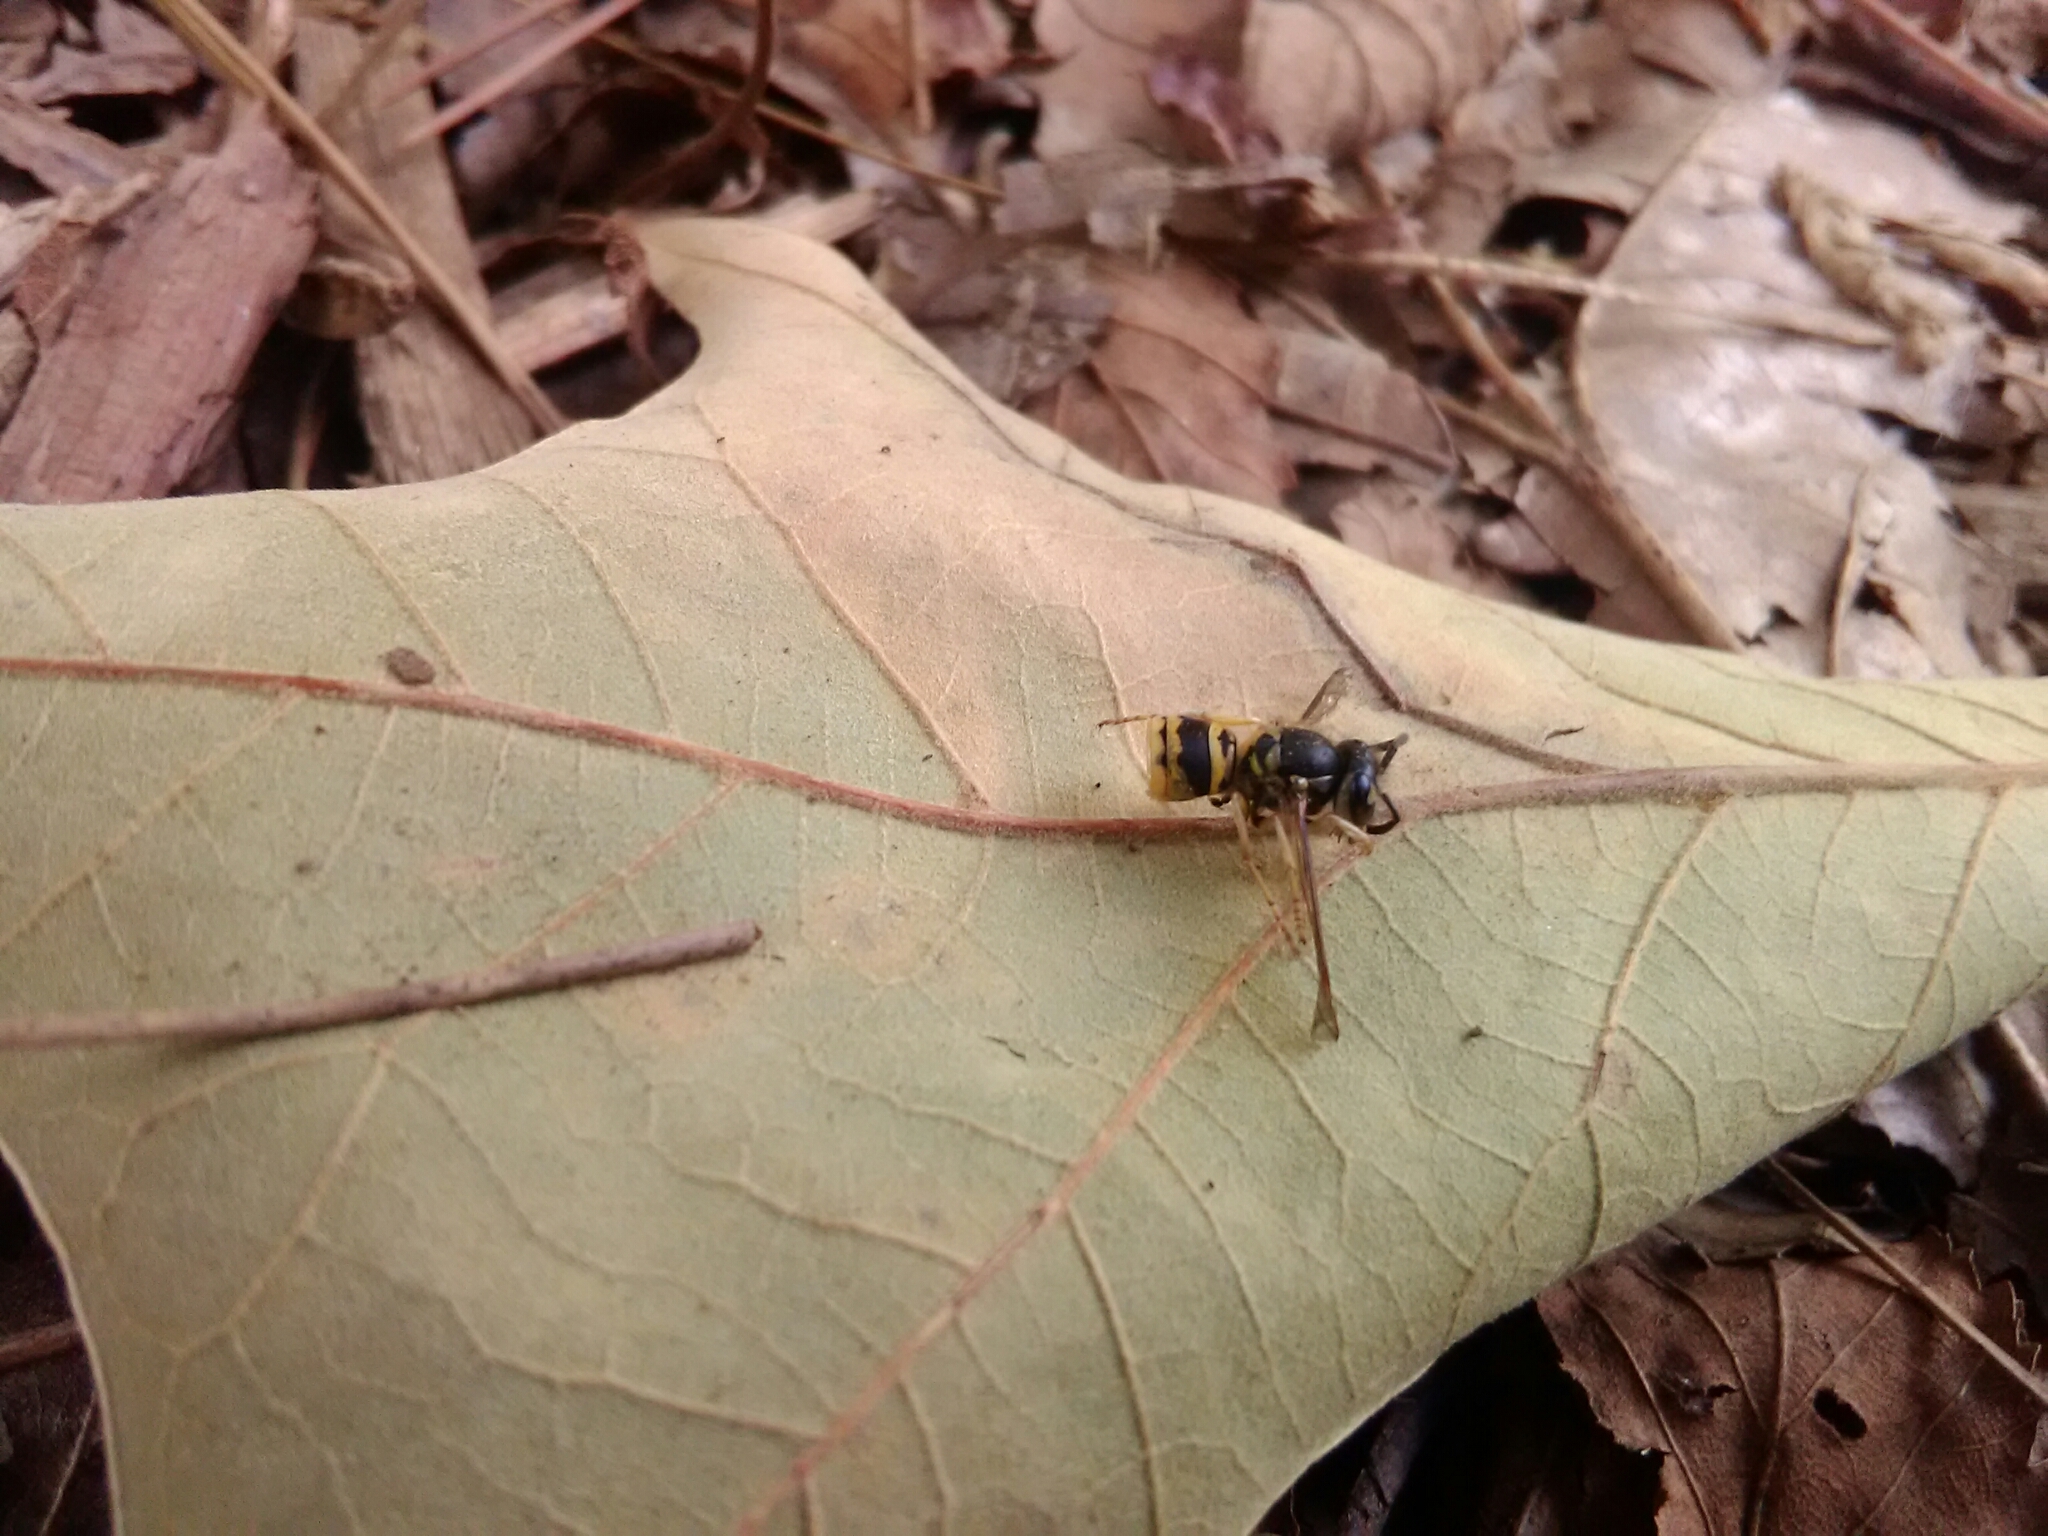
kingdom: Animalia
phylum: Arthropoda
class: Insecta
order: Hymenoptera
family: Vespidae
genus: Vespula
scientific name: Vespula maculifrons
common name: Eastern yellowjacket
